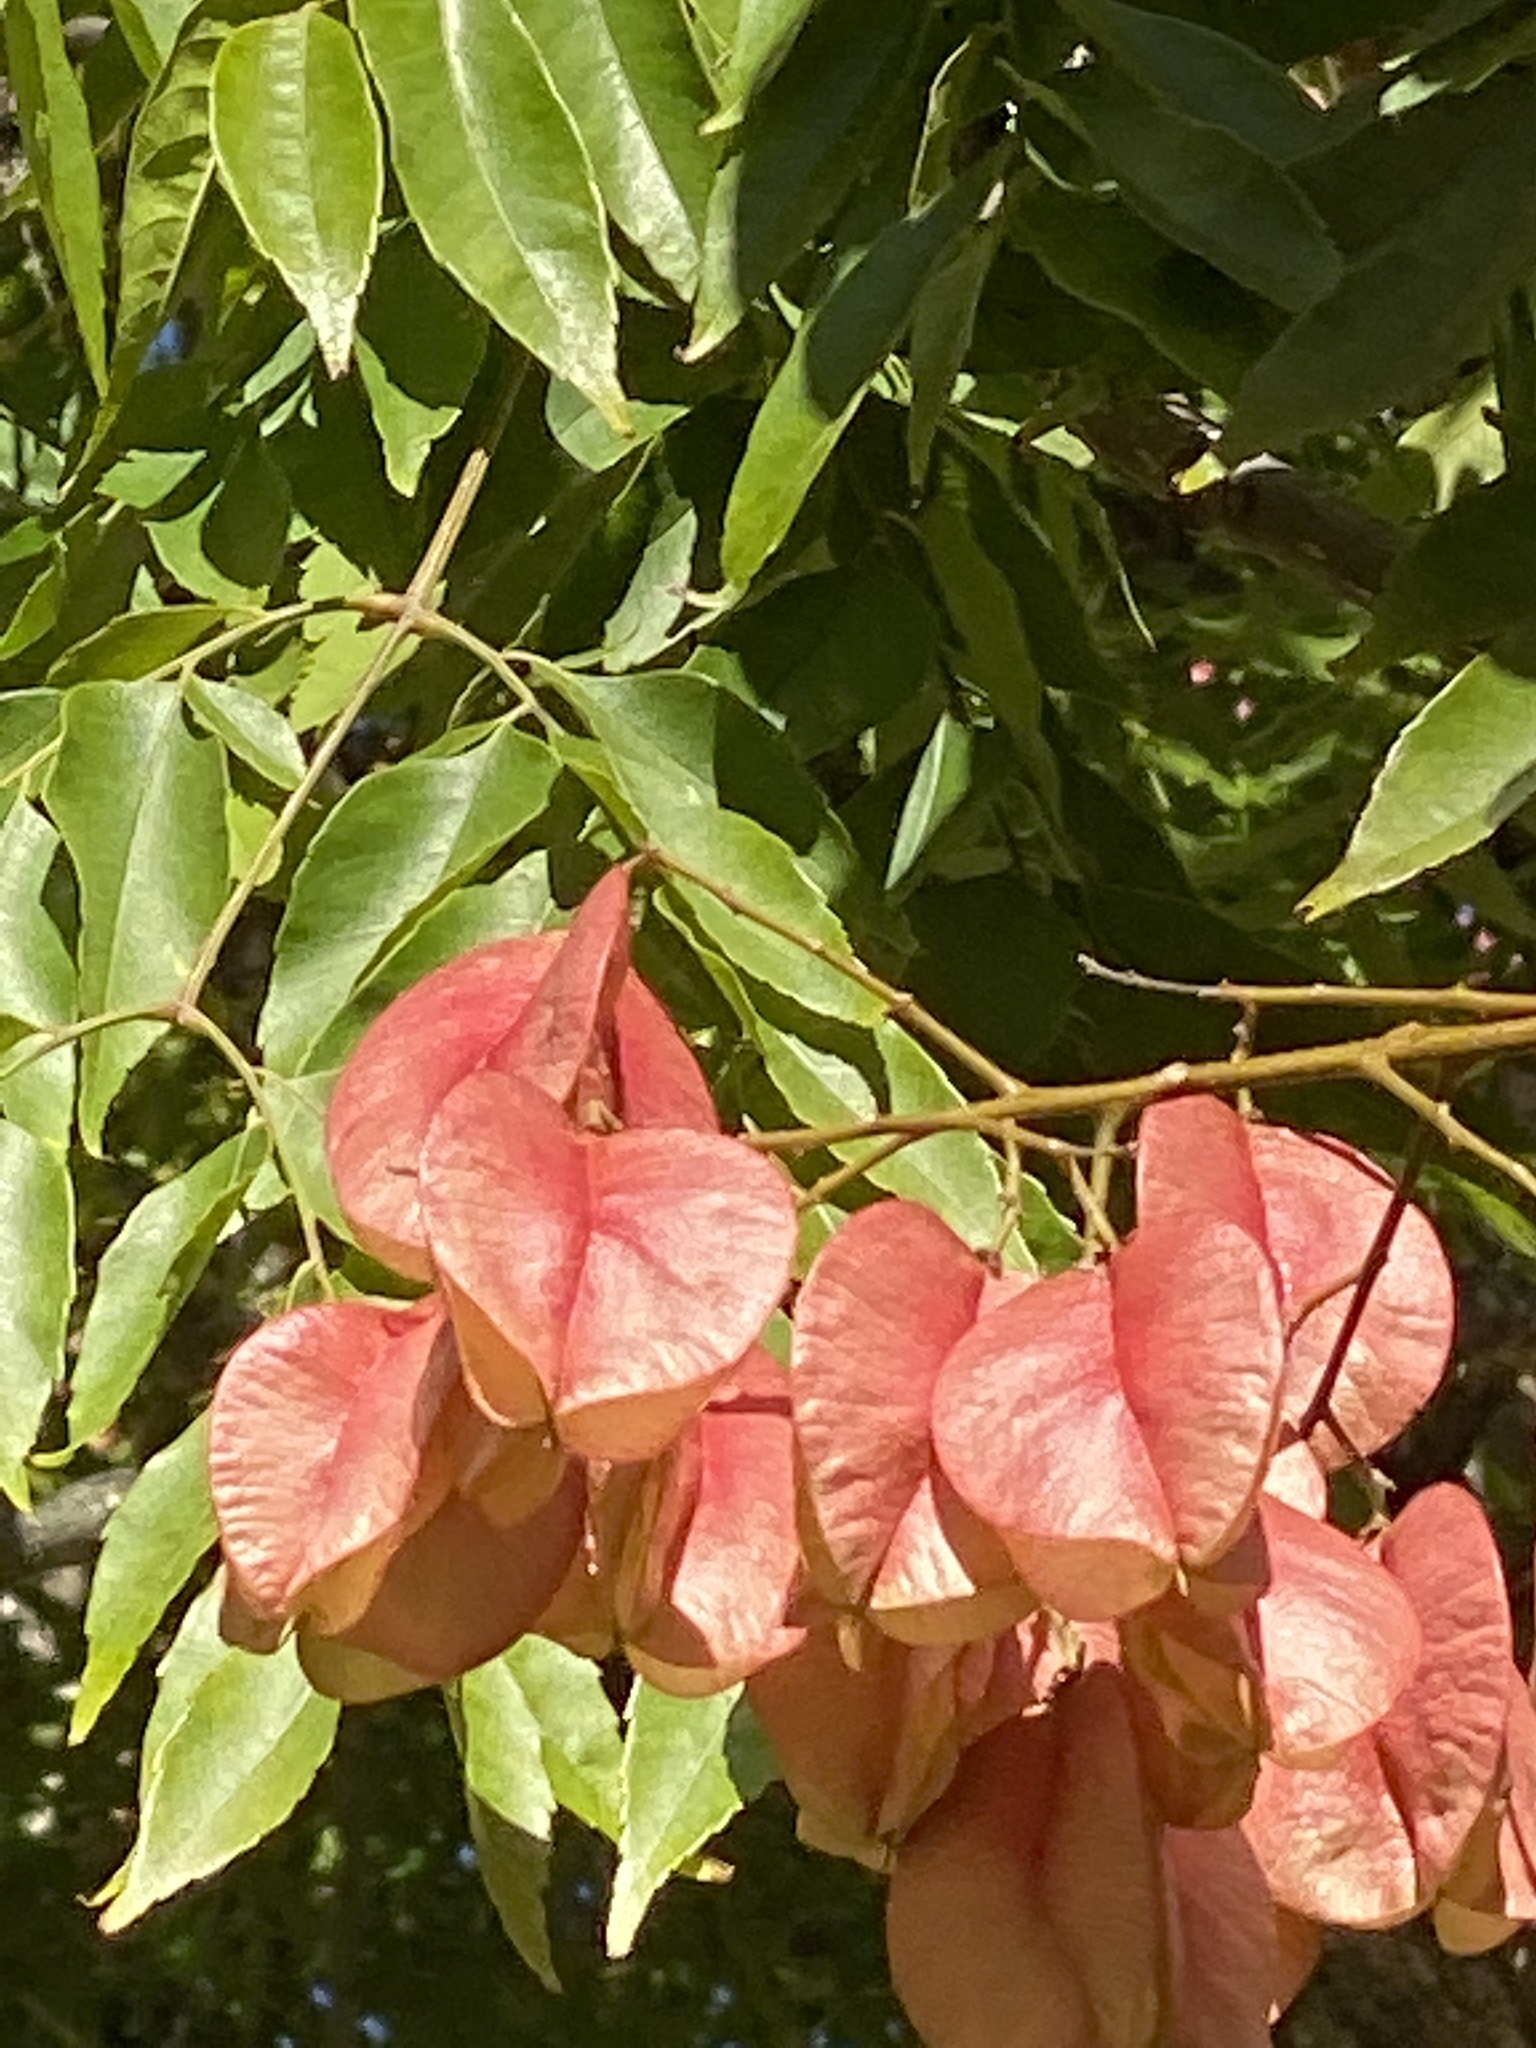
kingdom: Plantae
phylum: Tracheophyta
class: Magnoliopsida
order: Sapindales
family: Sapindaceae
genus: Koelreuteria
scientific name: Koelreuteria elegans
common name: Chinese flame tree
